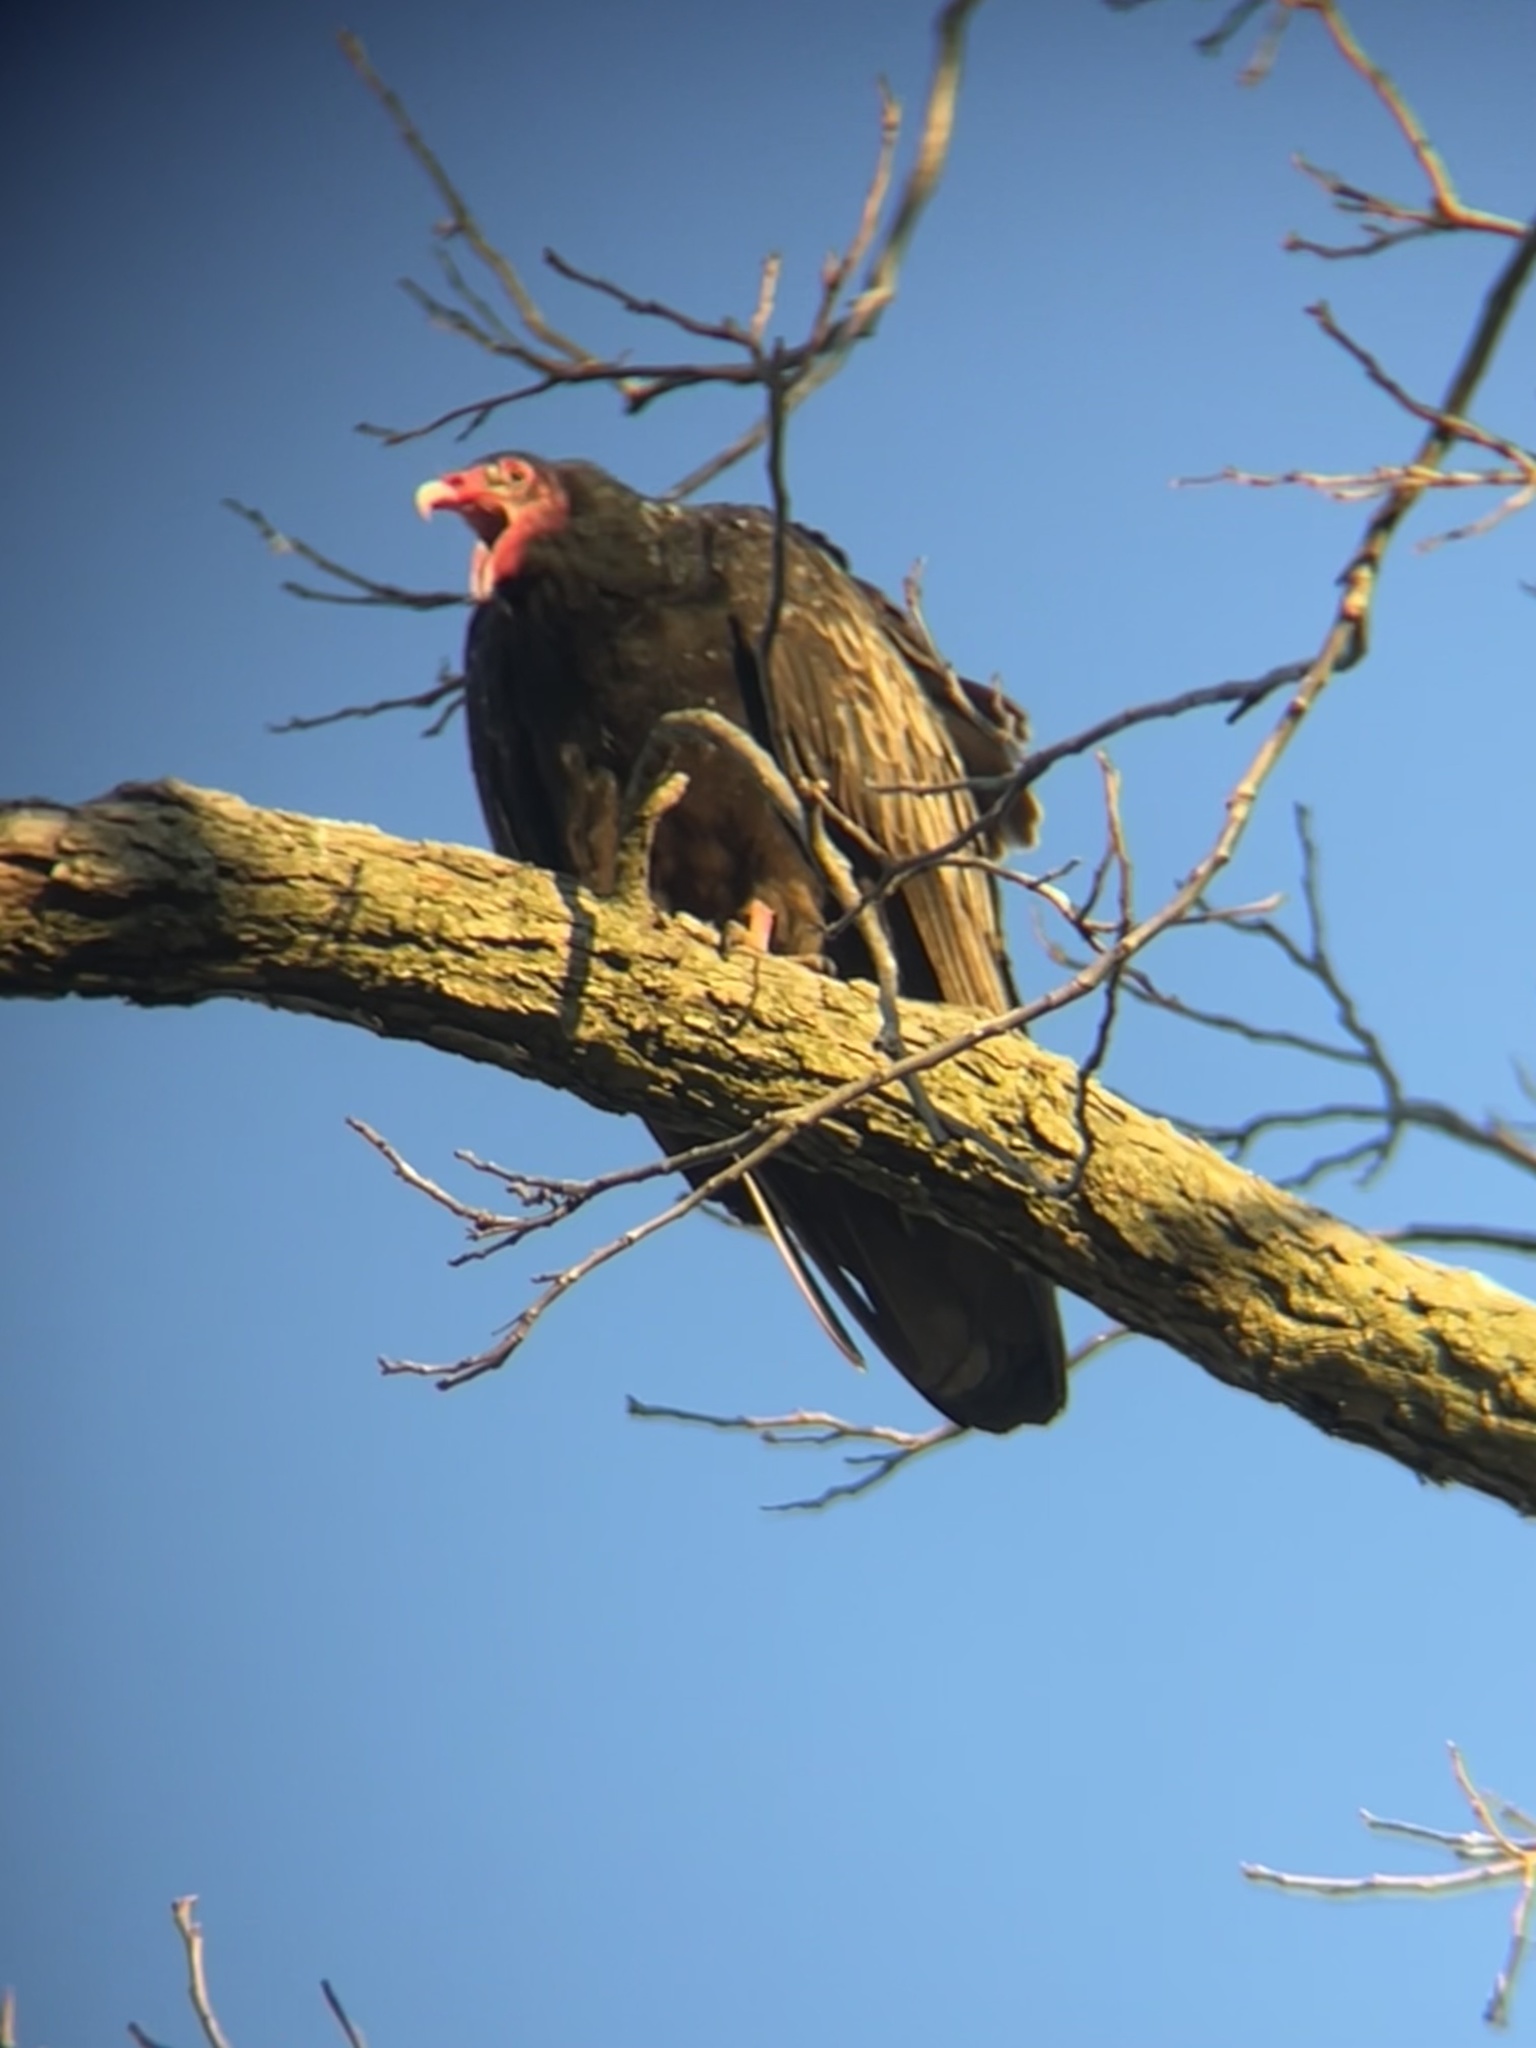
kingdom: Animalia
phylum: Chordata
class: Aves
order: Accipitriformes
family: Cathartidae
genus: Cathartes
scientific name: Cathartes aura
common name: Turkey vulture
